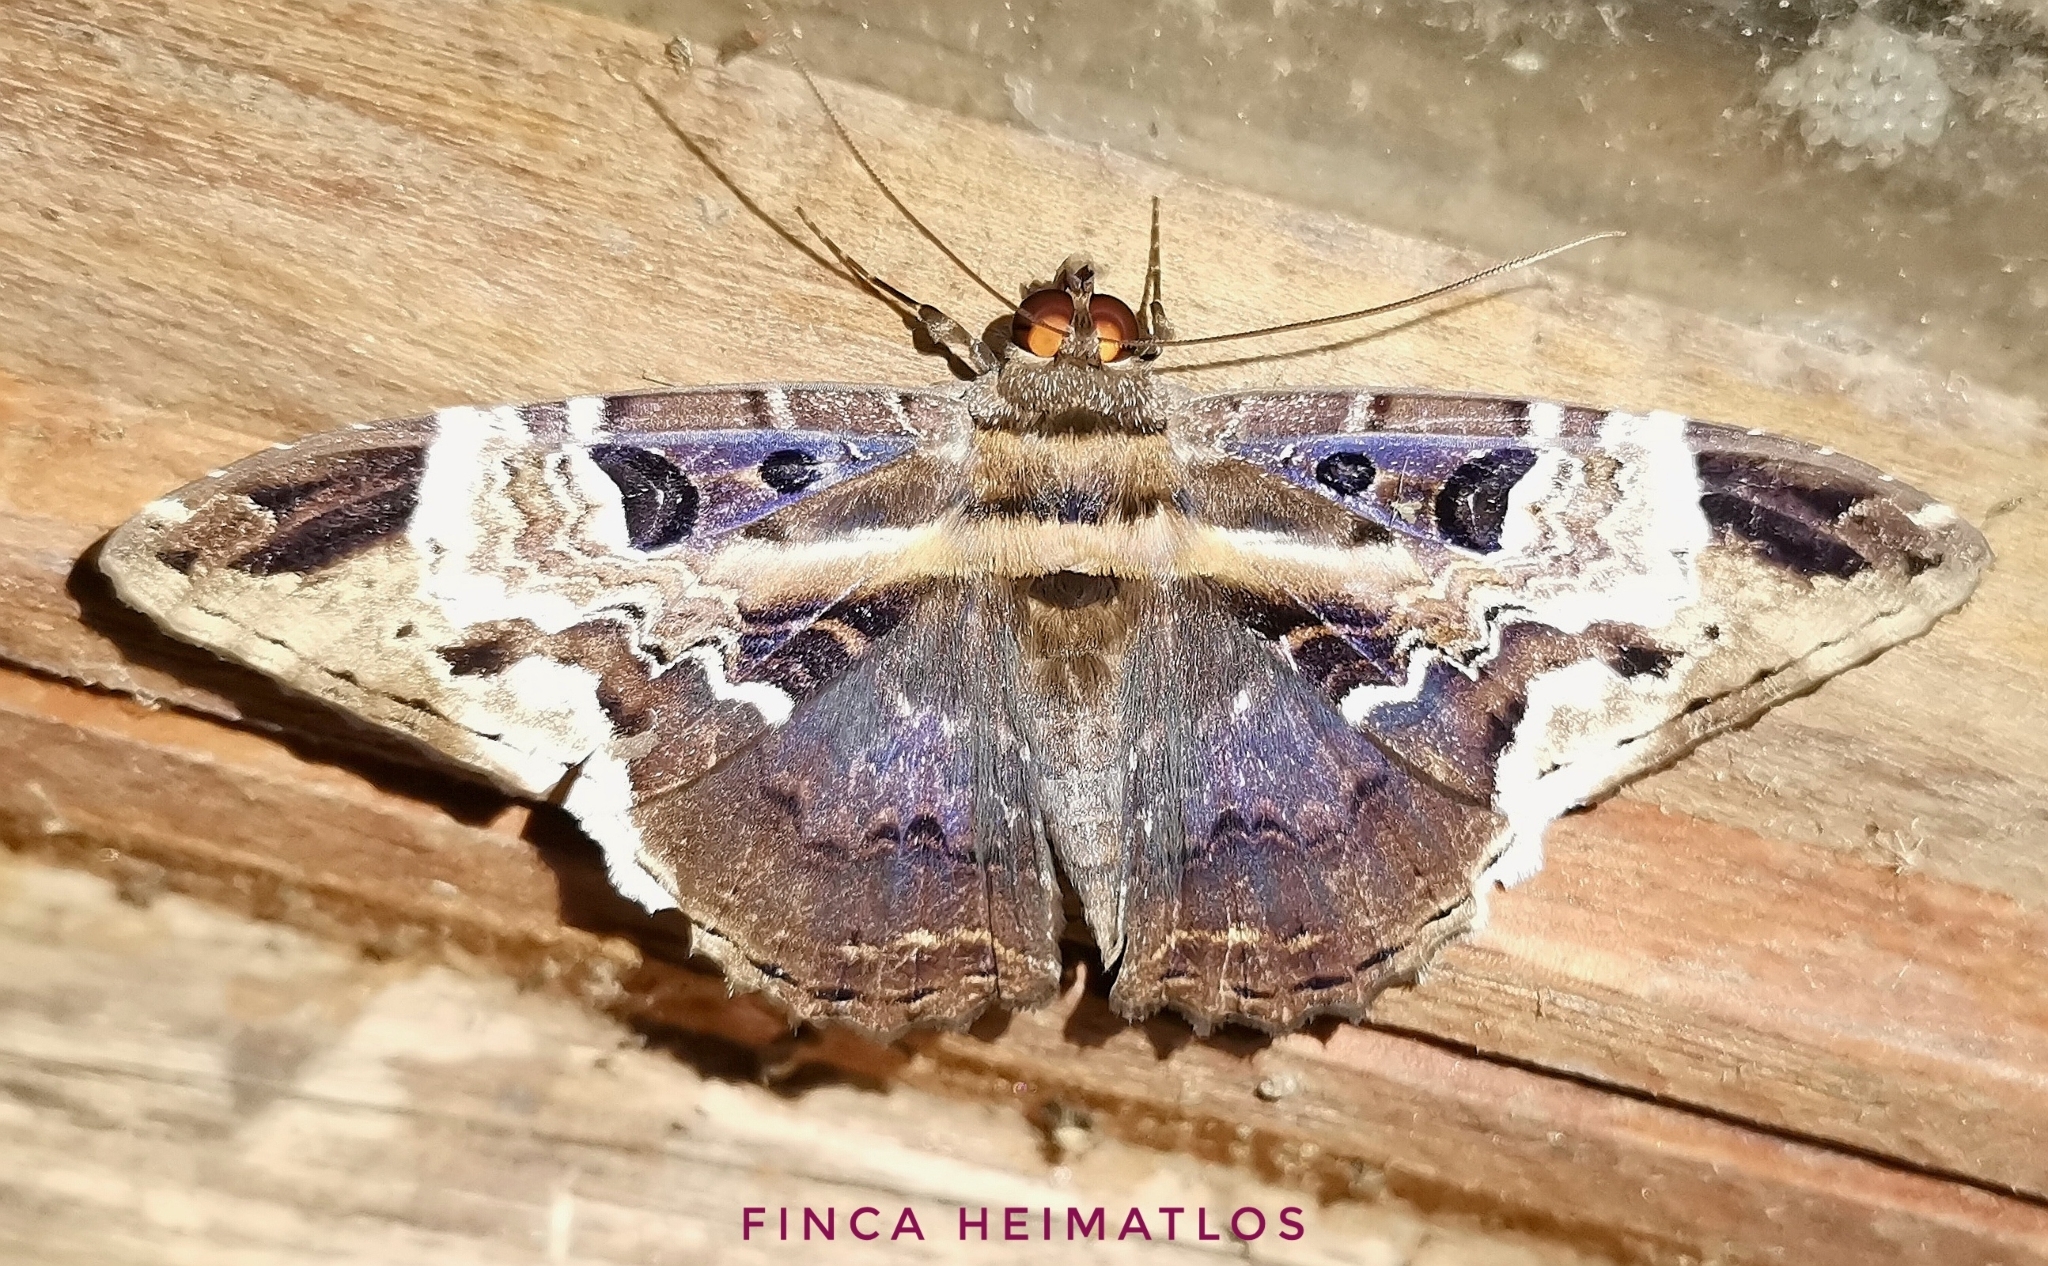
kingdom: Animalia
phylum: Arthropoda
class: Insecta
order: Lepidoptera
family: Erebidae
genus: Feigeria
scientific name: Feigeria herilia
